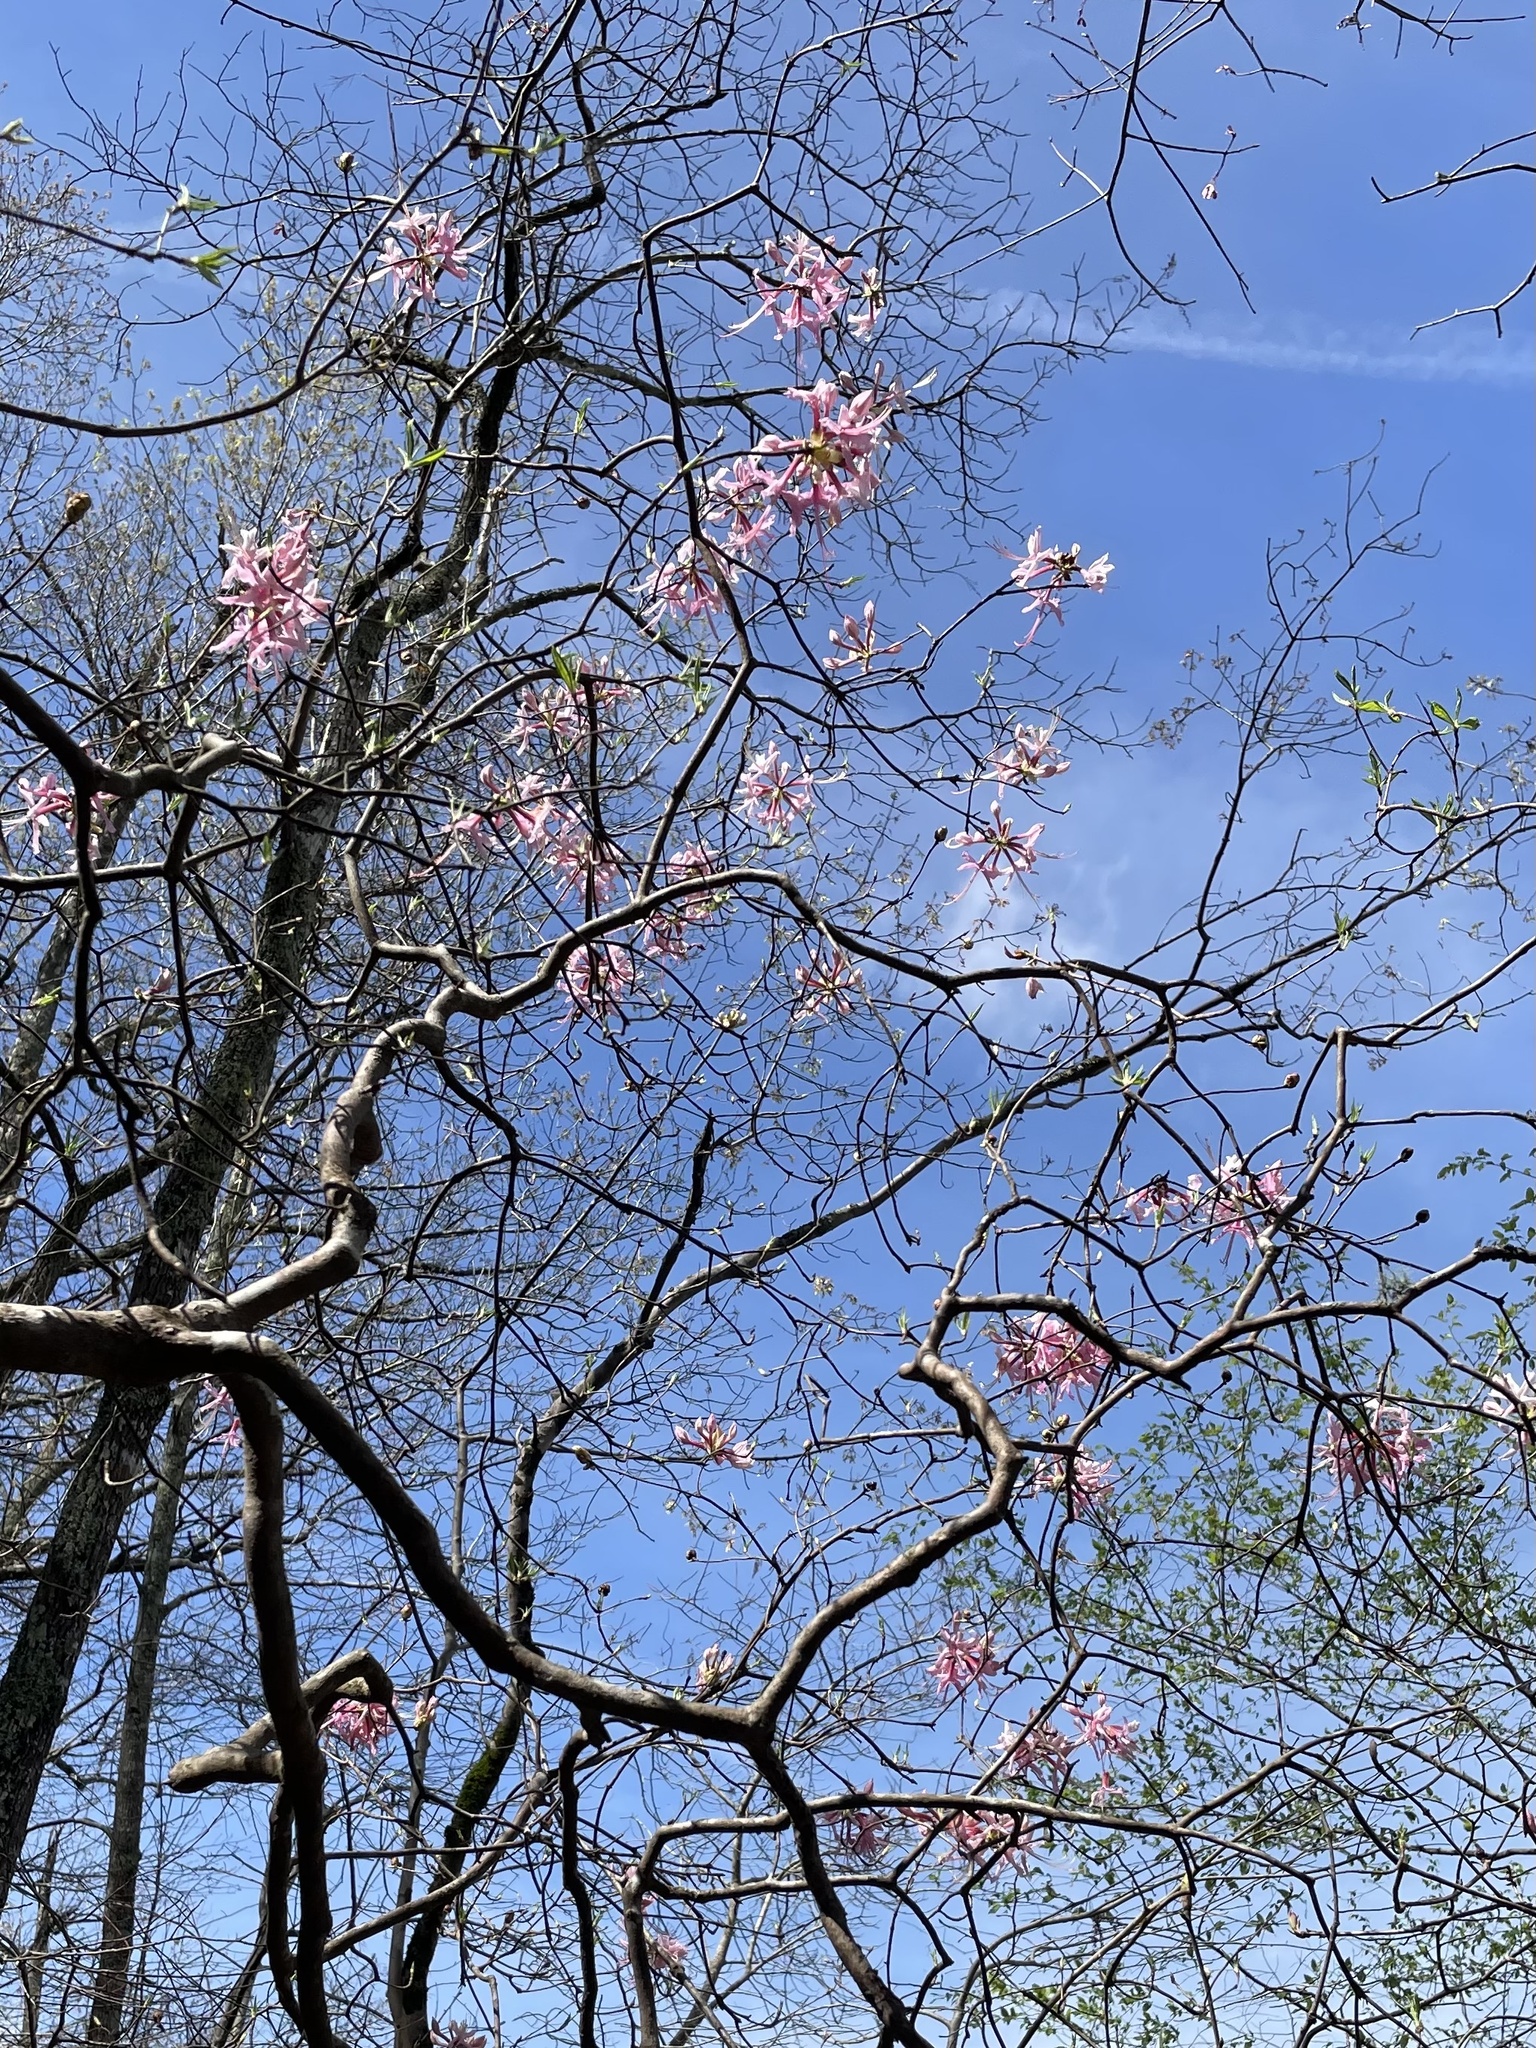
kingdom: Plantae
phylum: Tracheophyta
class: Magnoliopsida
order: Ericales
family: Ericaceae
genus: Rhododendron
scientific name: Rhododendron periclymenoides
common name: Election-pink
